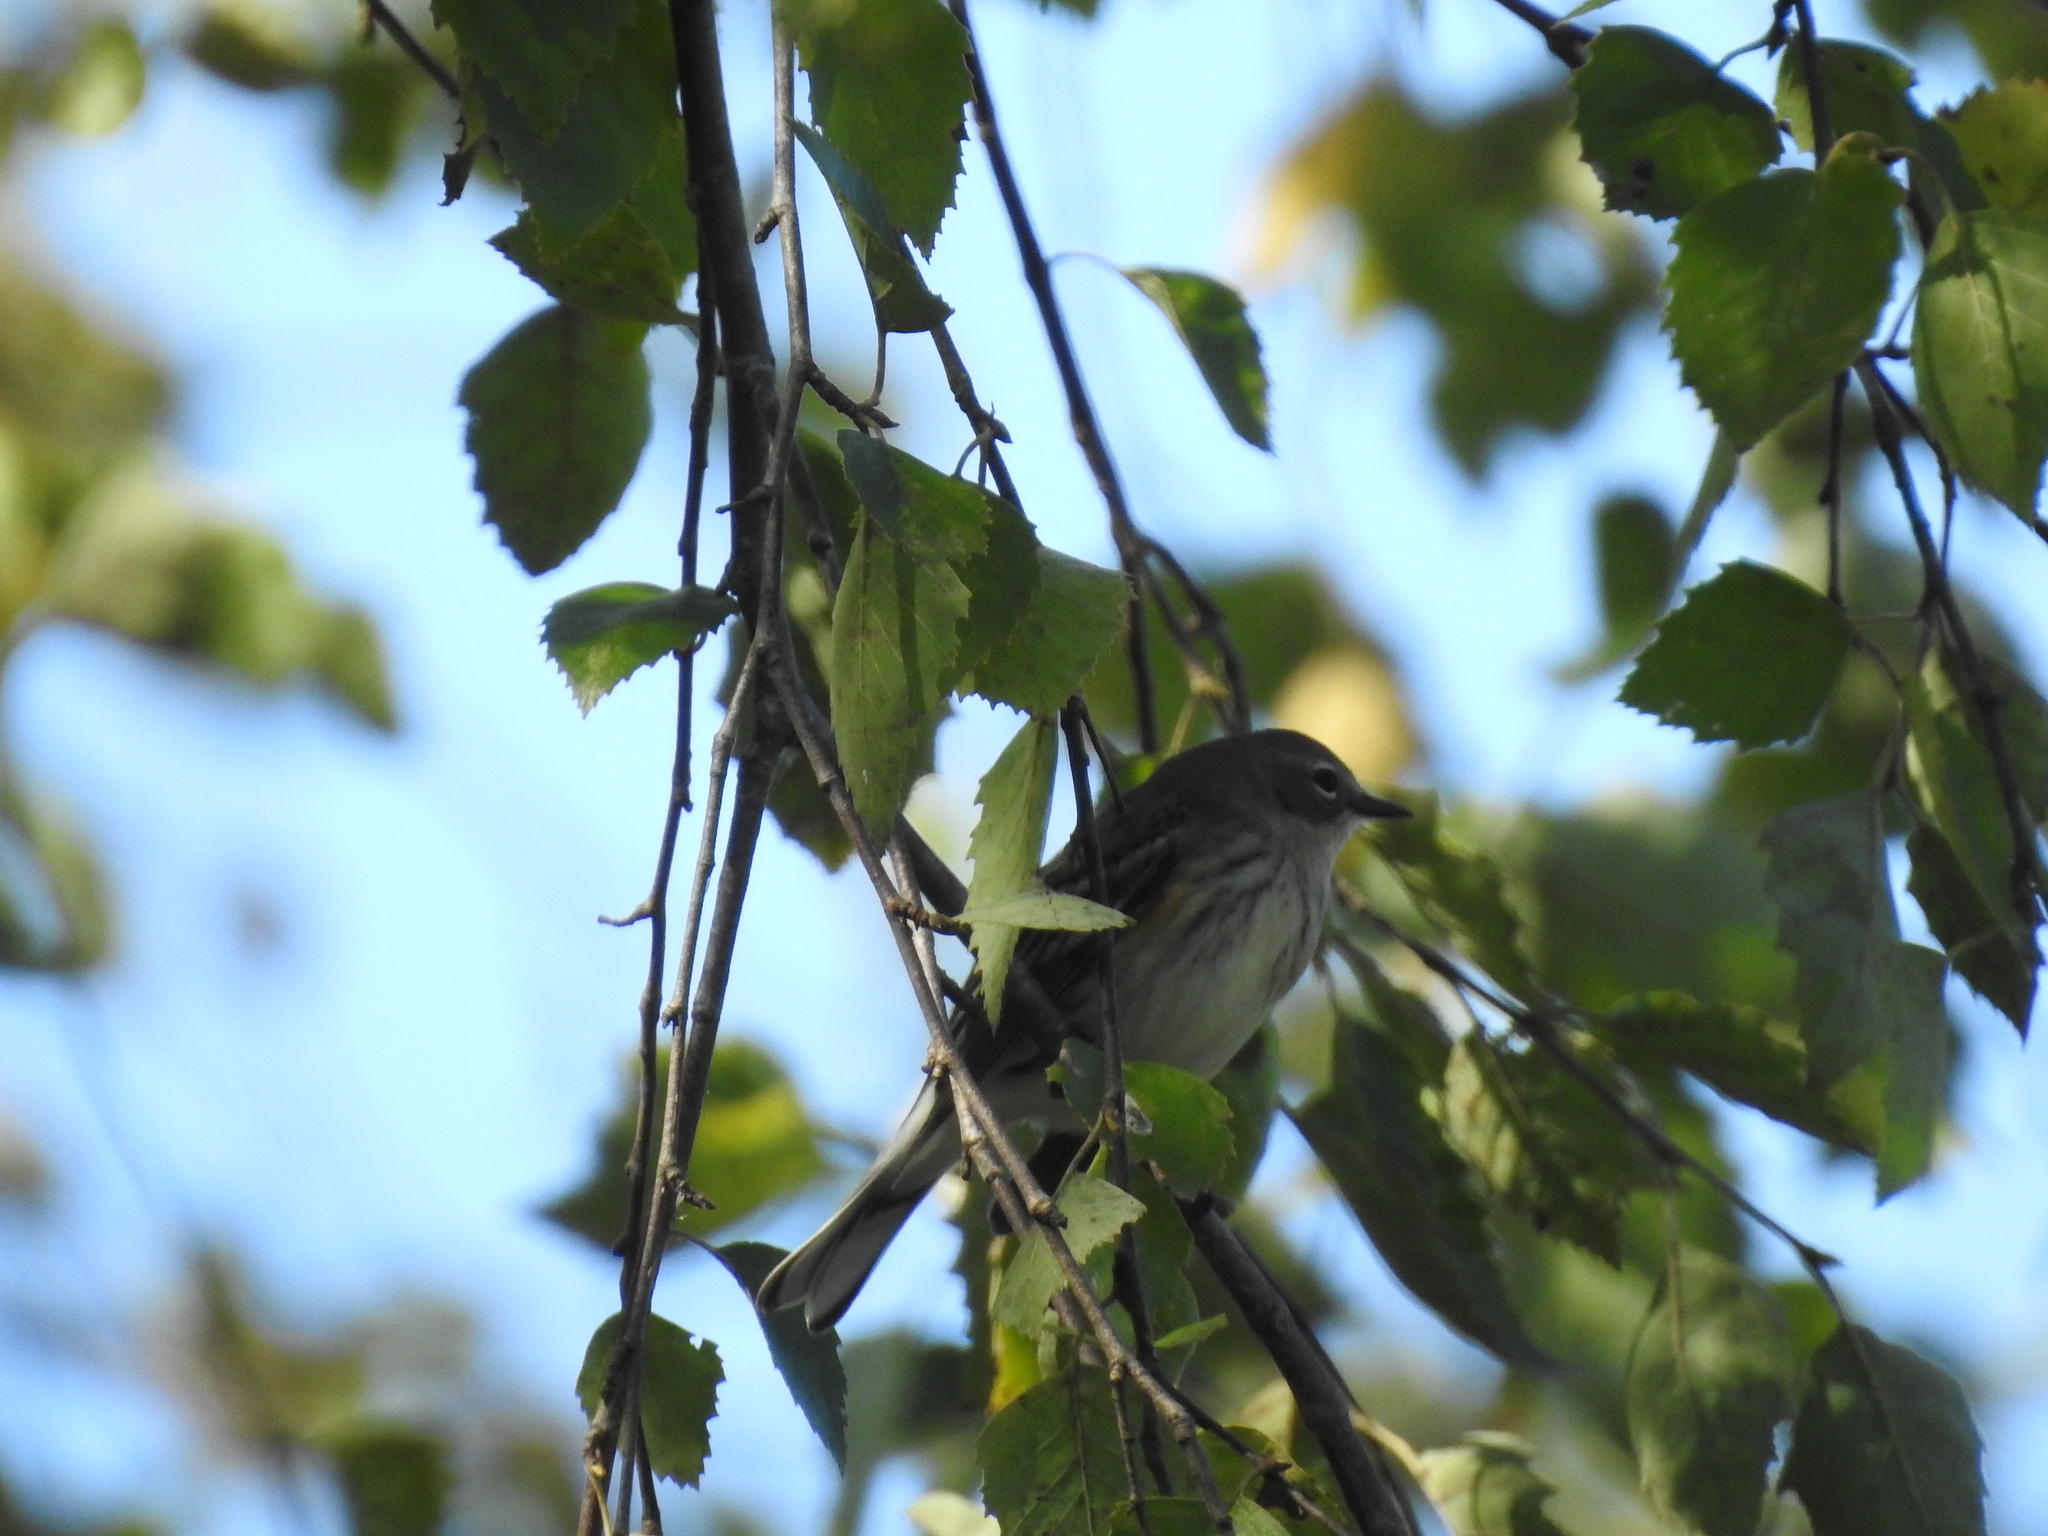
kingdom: Animalia
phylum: Chordata
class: Aves
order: Passeriformes
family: Parulidae
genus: Setophaga
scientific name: Setophaga coronata
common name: Myrtle warbler
